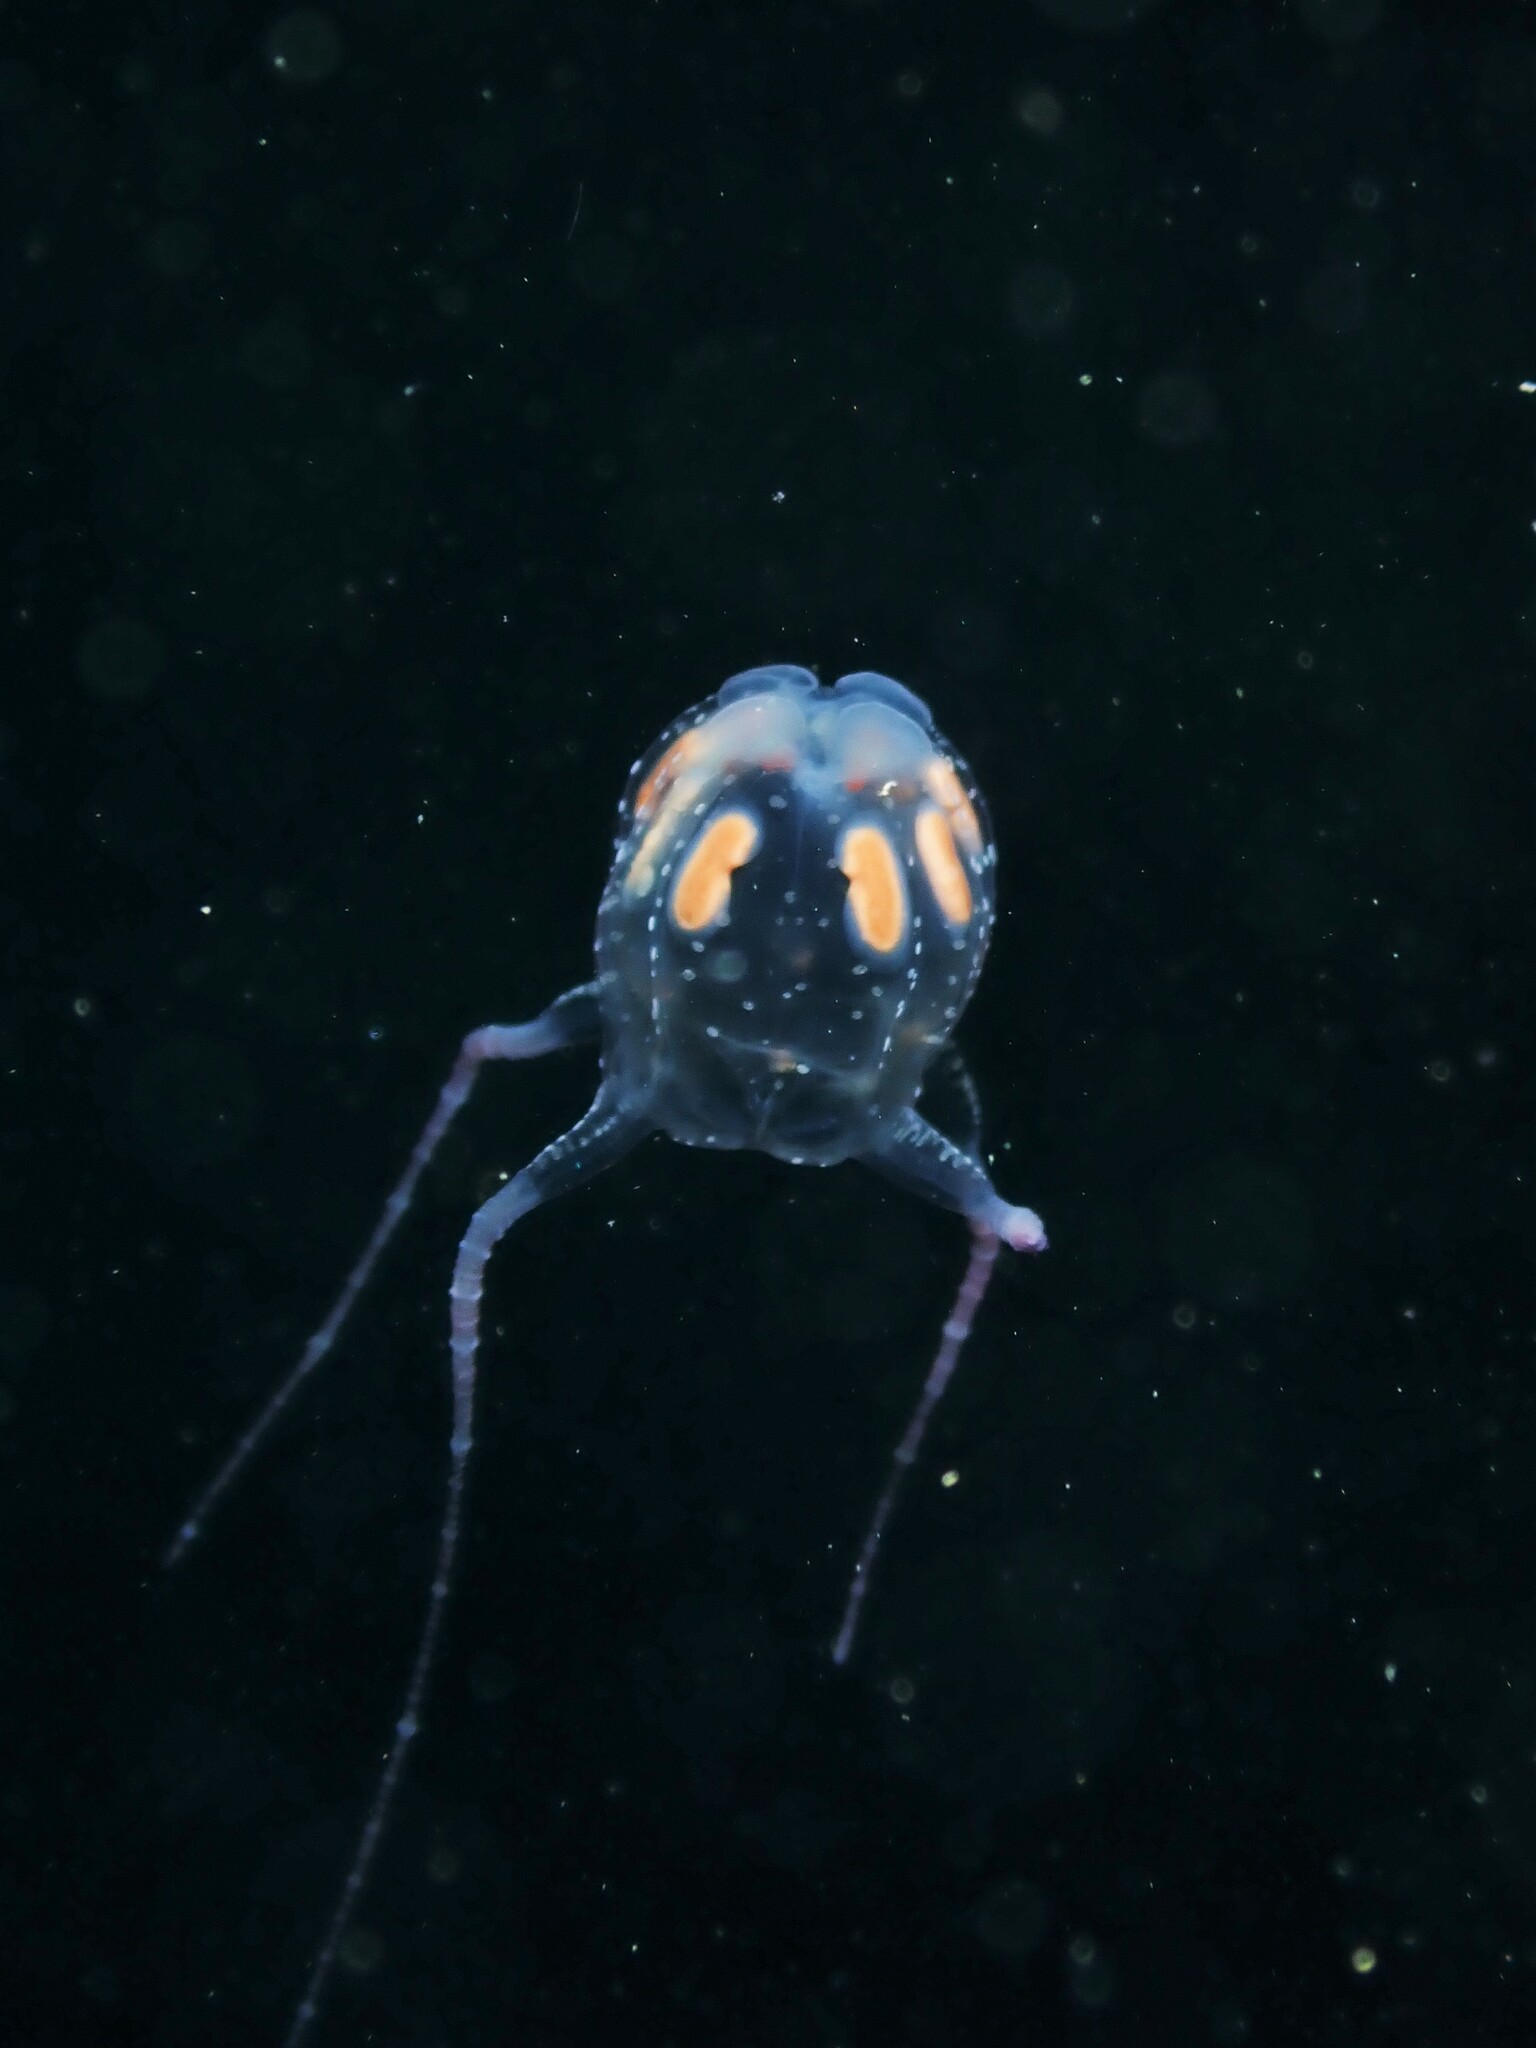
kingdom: Animalia
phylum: Cnidaria
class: Cubozoa
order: Carybdeida
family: Tripedaliidae
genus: Copula
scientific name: Copula sivickisi
